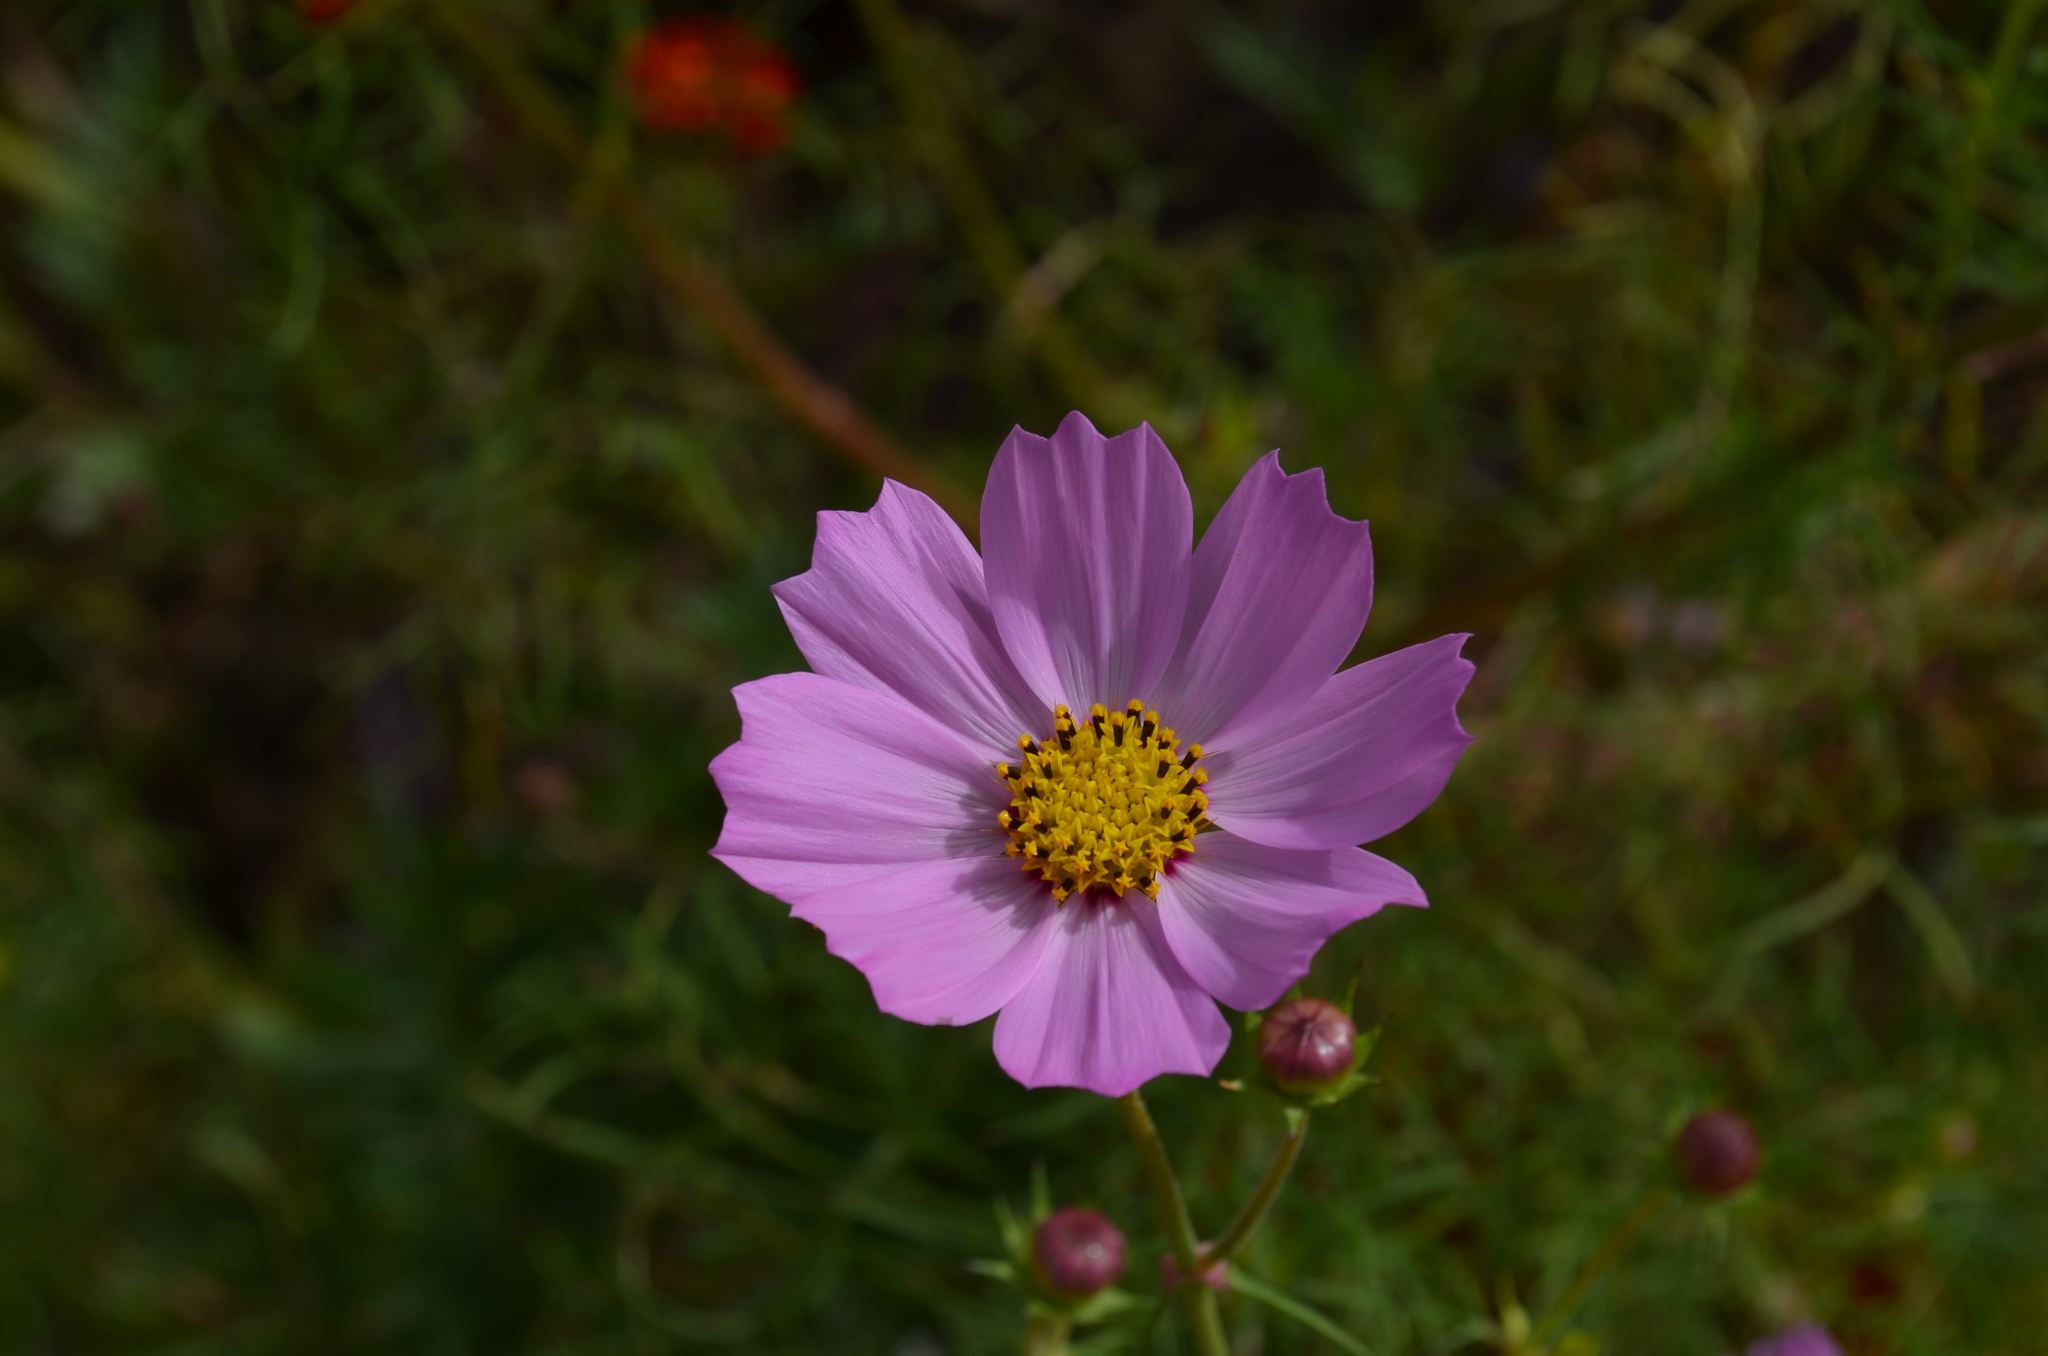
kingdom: Plantae
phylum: Tracheophyta
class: Magnoliopsida
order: Asterales
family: Asteraceae
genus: Cosmos
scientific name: Cosmos bipinnatus
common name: Garden cosmos
